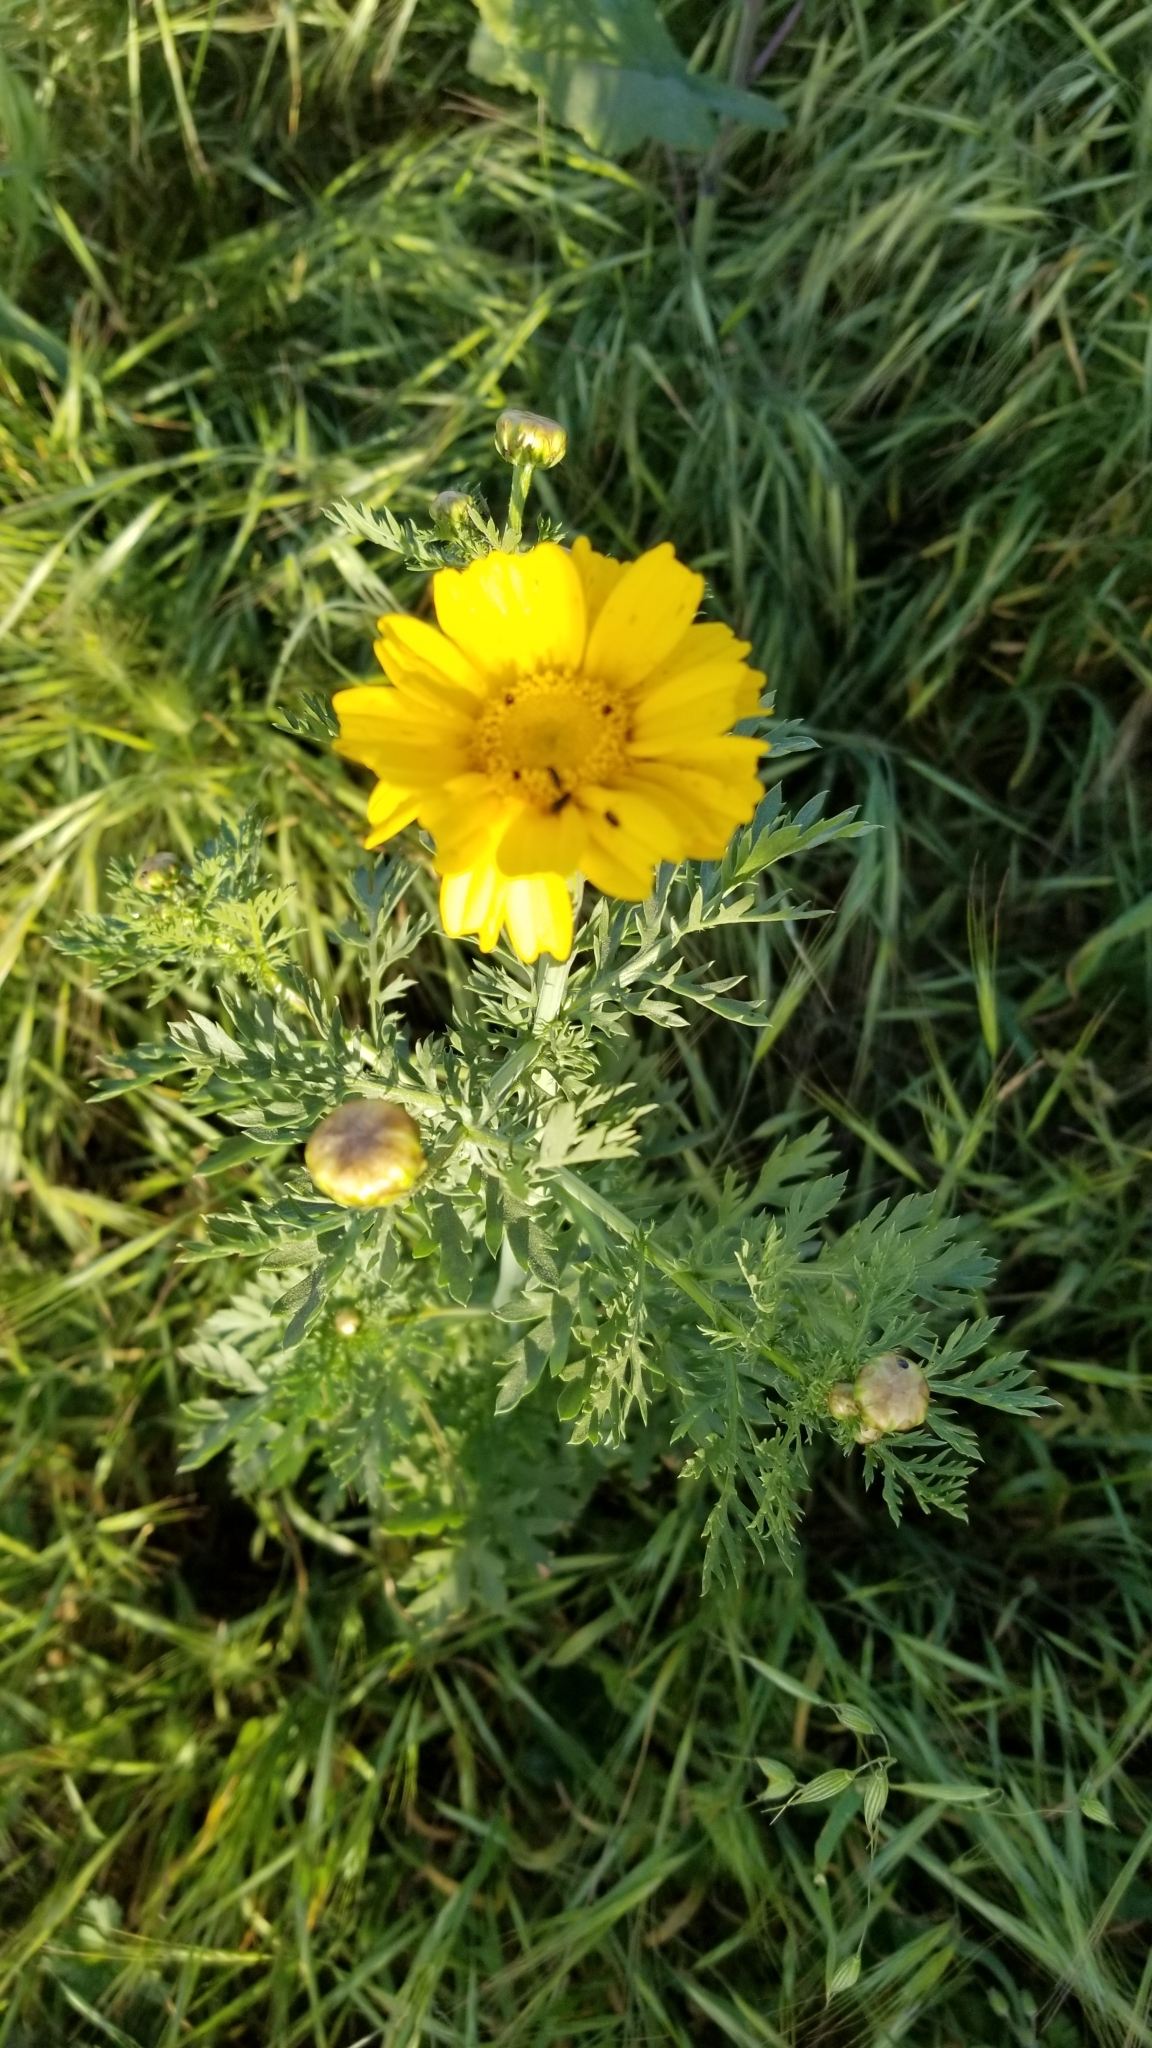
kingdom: Plantae
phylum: Tracheophyta
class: Magnoliopsida
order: Asterales
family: Asteraceae
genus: Glebionis
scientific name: Glebionis coronaria
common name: Crowndaisy
